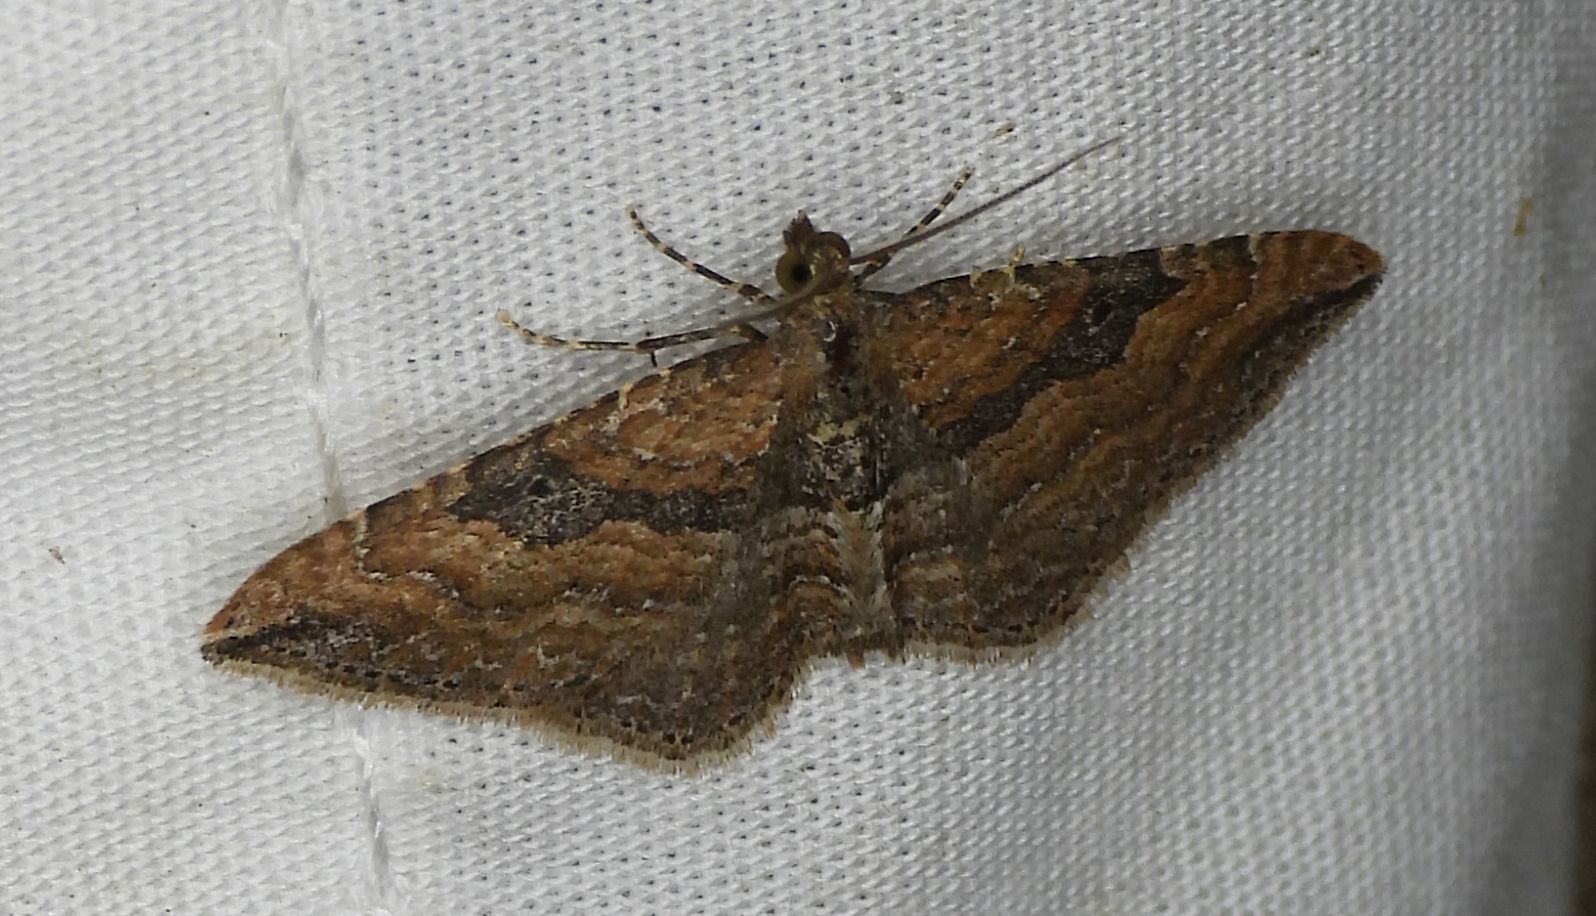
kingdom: Animalia
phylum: Arthropoda
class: Insecta
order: Lepidoptera
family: Geometridae
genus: Orthonama
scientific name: Orthonama obstipata
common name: The gem
